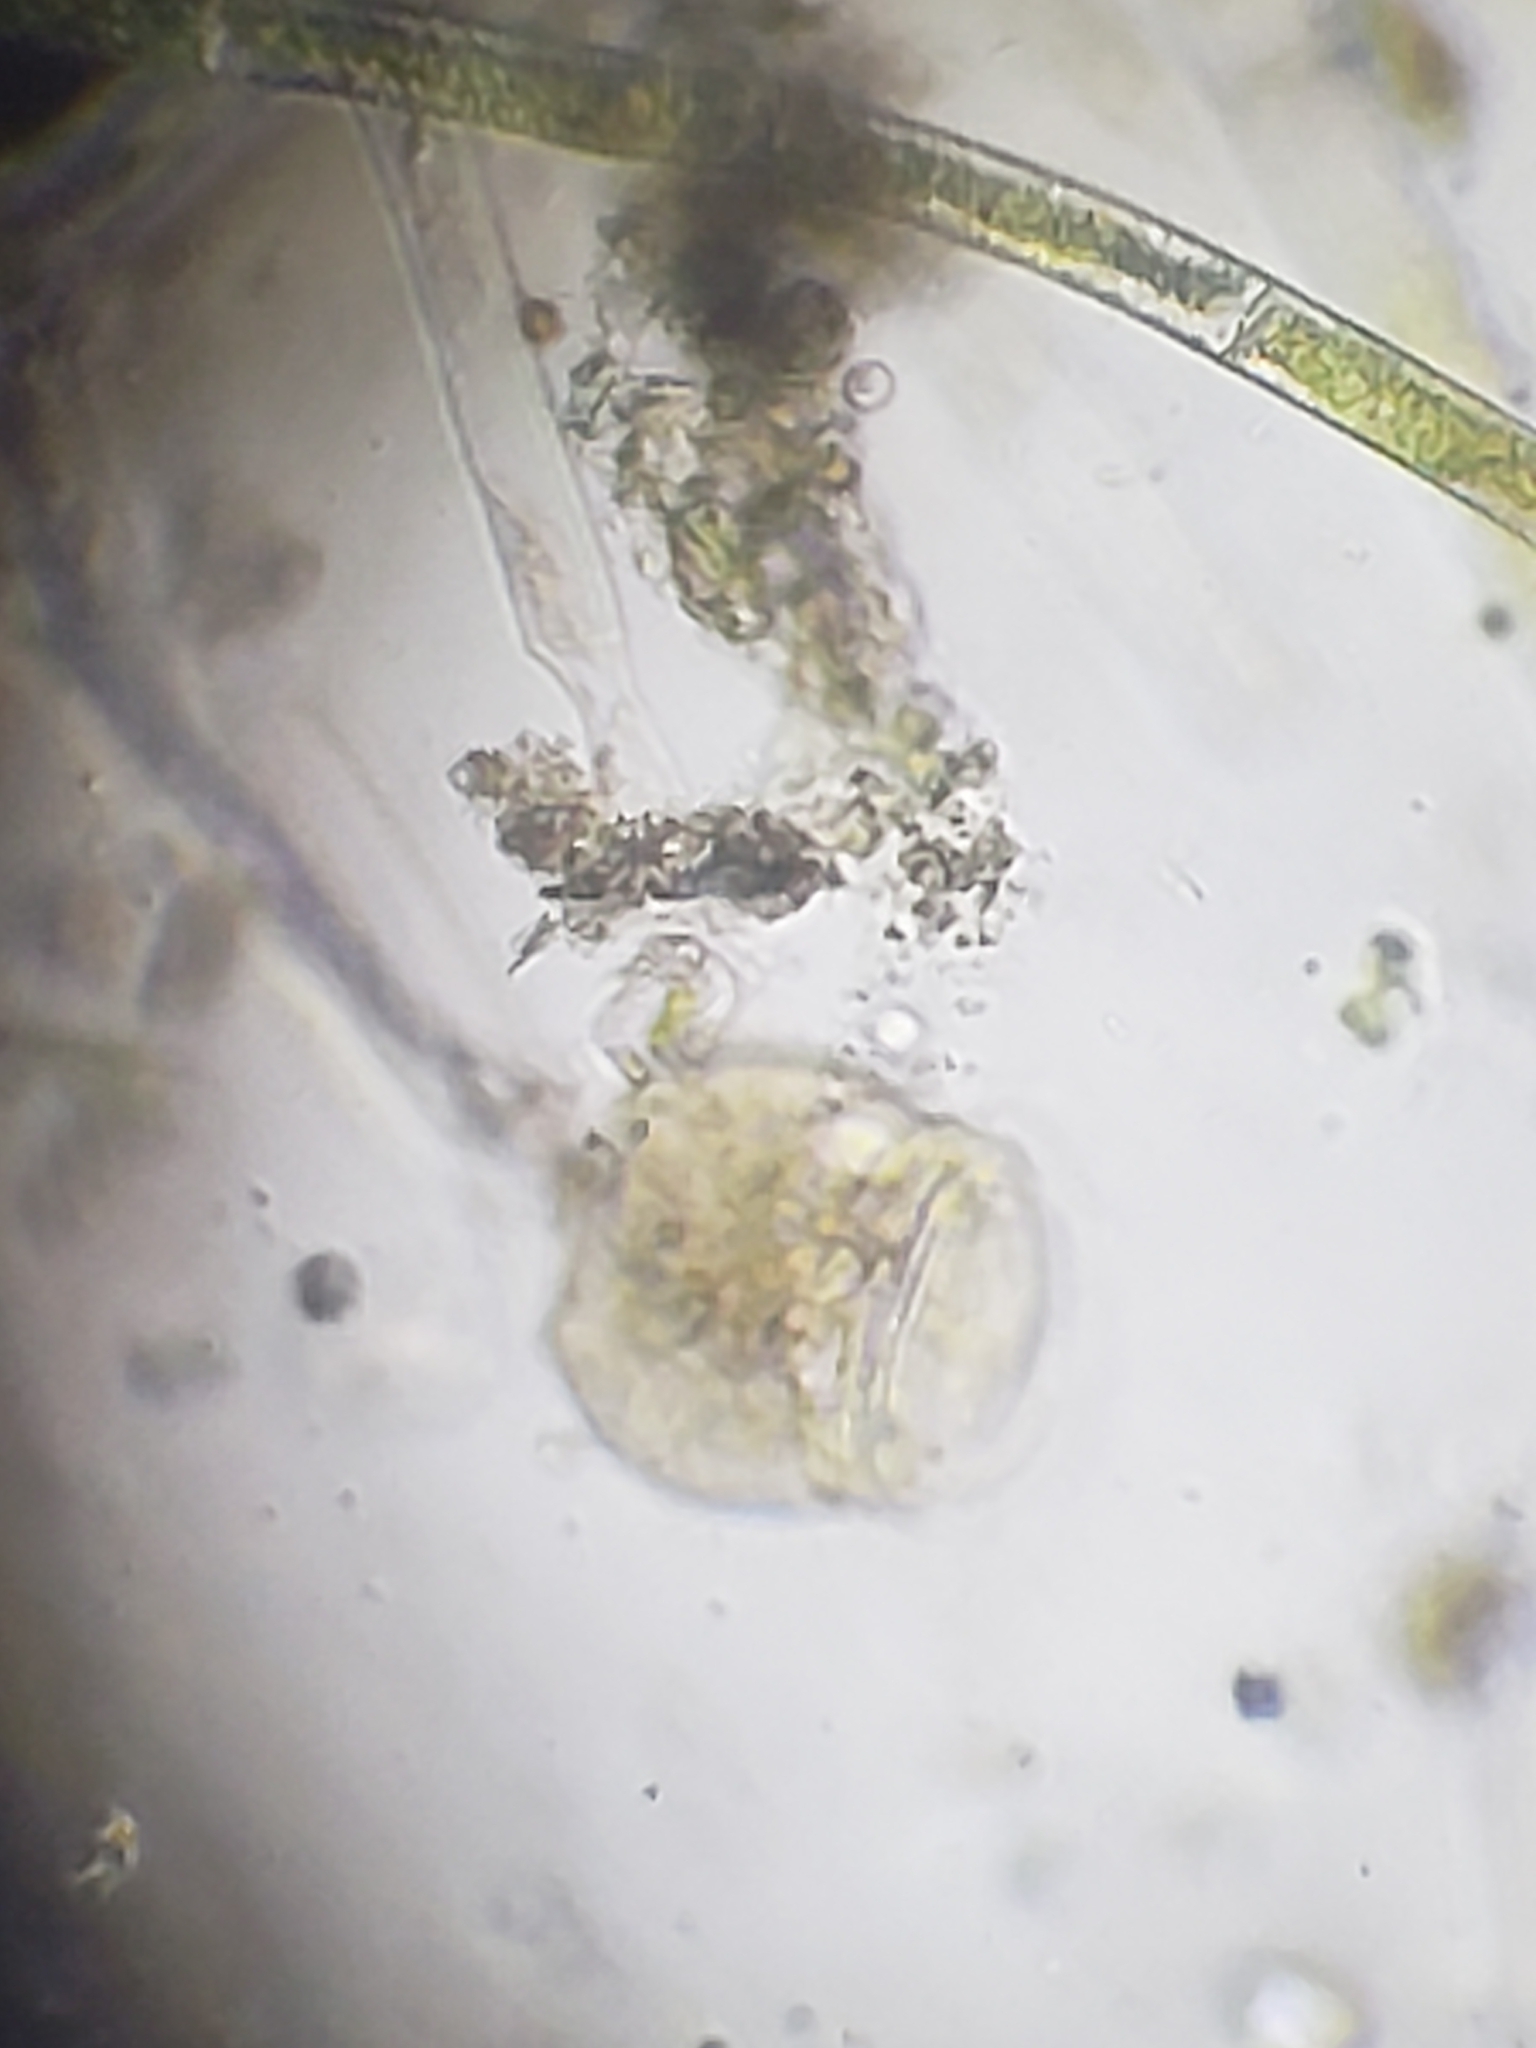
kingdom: Chromista
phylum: Ciliophora
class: Oligohymenophorea
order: Peritrichida
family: Epistylididae
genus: Campanella
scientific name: Campanella umbellaria
